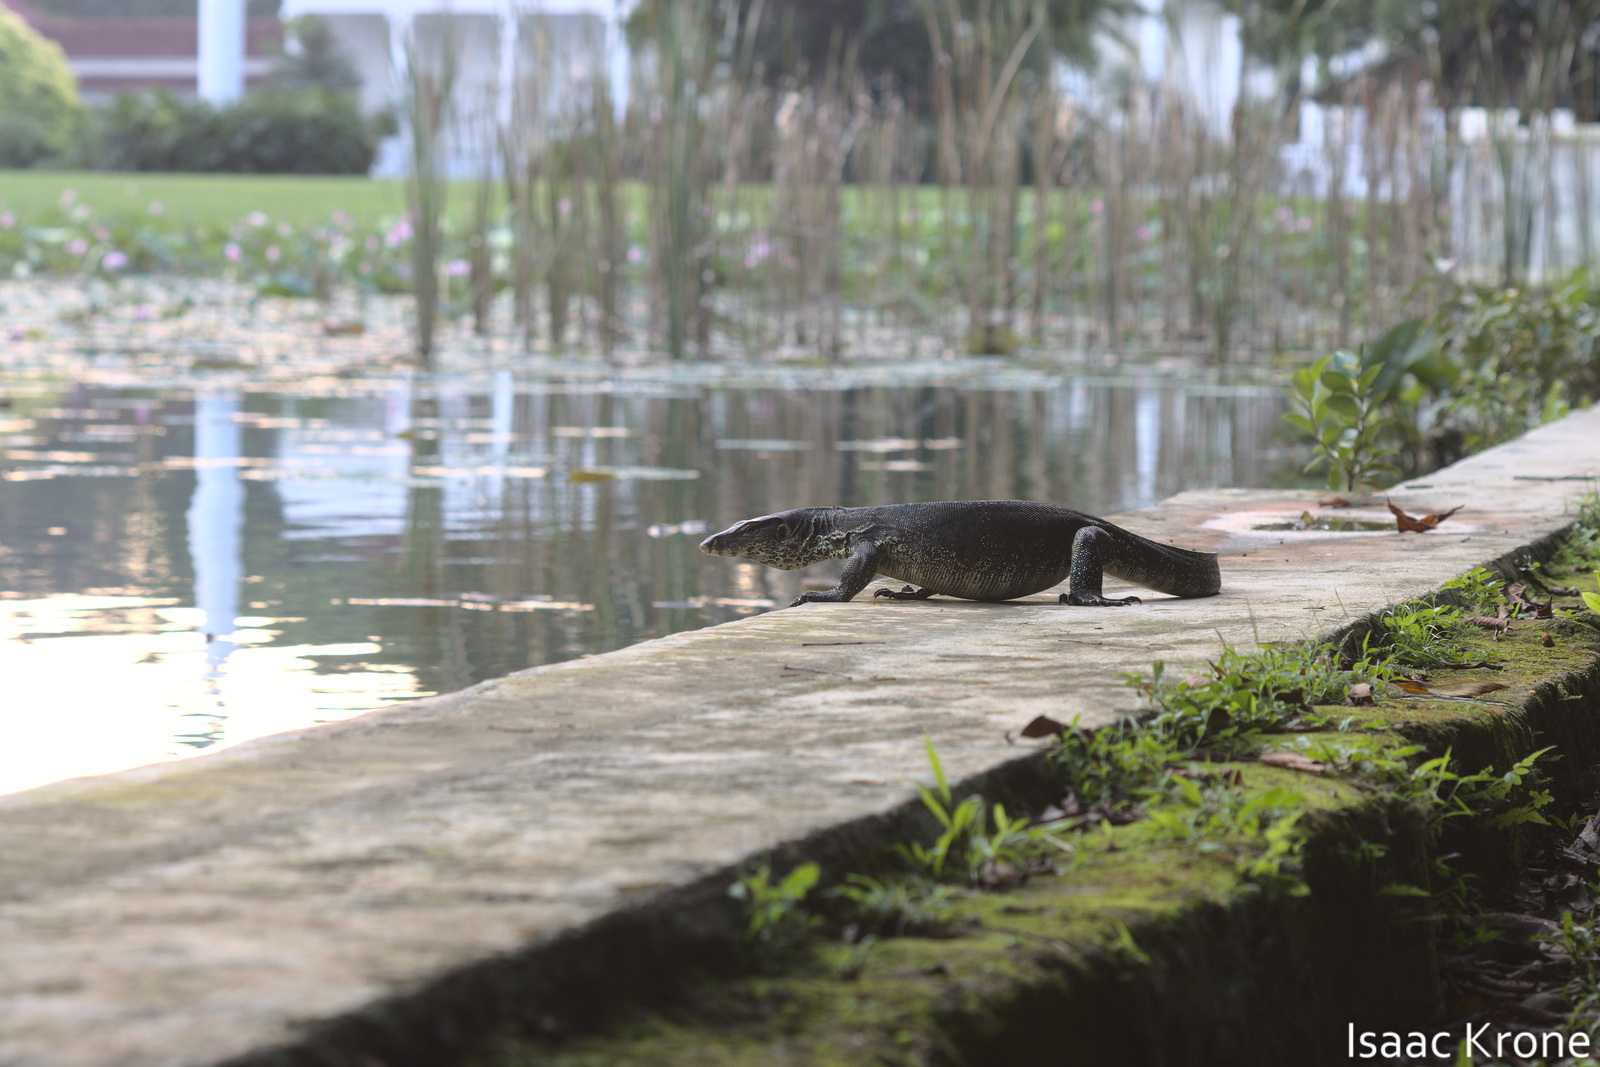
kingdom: Animalia
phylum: Chordata
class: Squamata
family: Varanidae
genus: Varanus
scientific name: Varanus salvator
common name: Common water monitor
